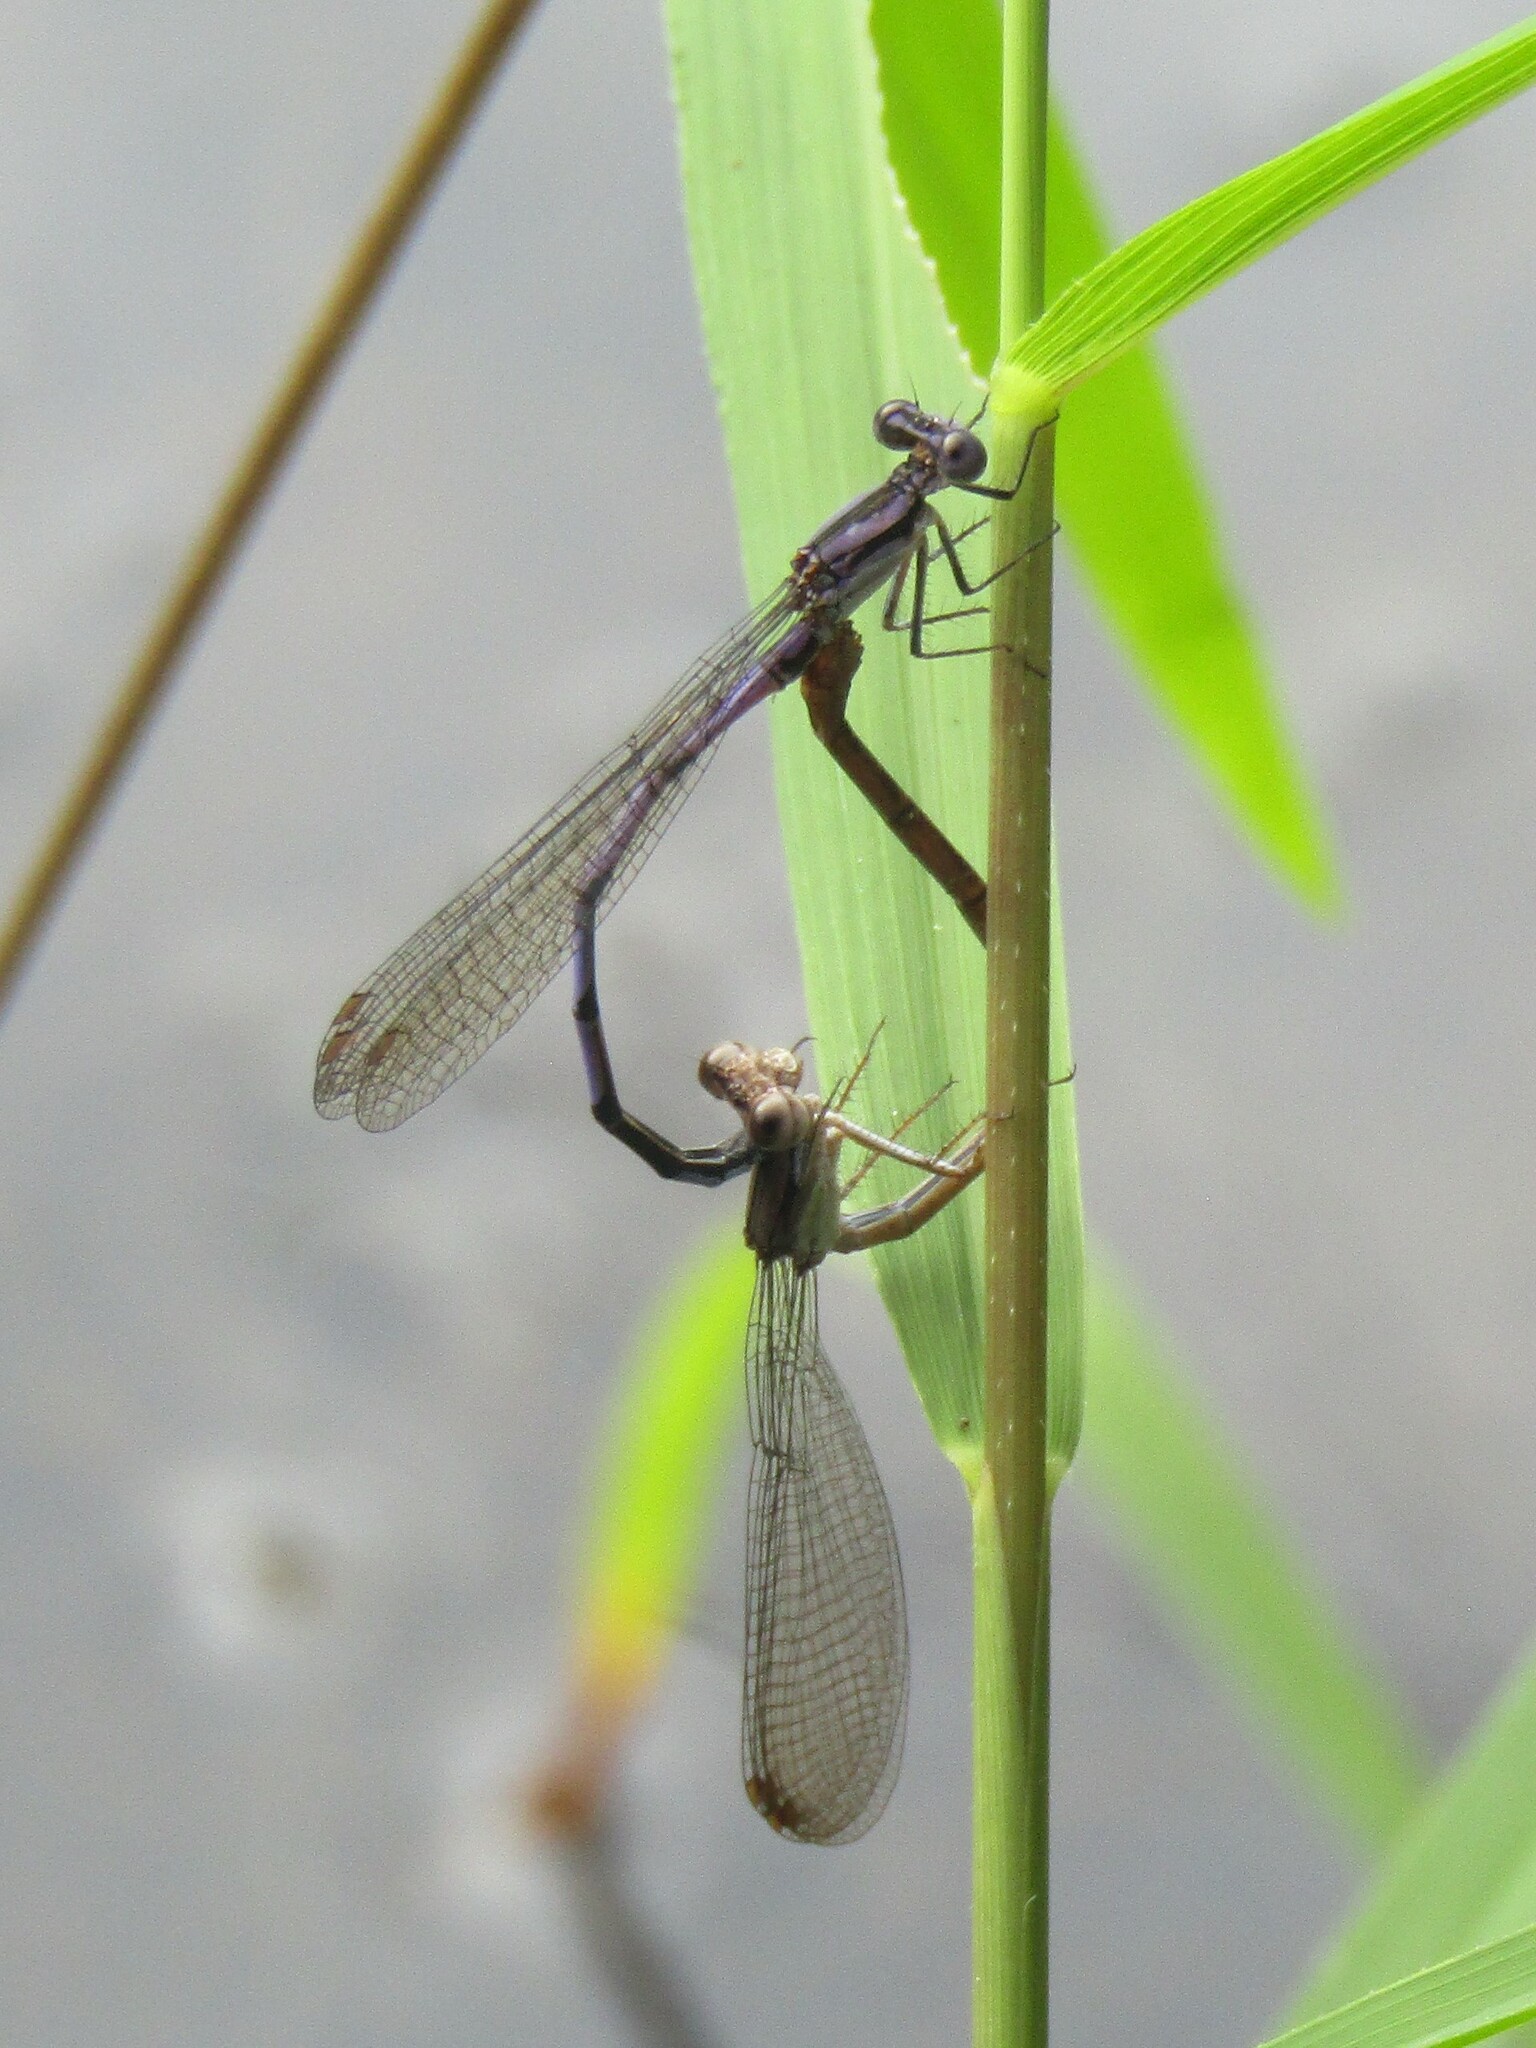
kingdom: Animalia
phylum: Arthropoda
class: Insecta
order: Odonata
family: Coenagrionidae
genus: Argia
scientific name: Argia fumipennis
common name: Variable dancer
